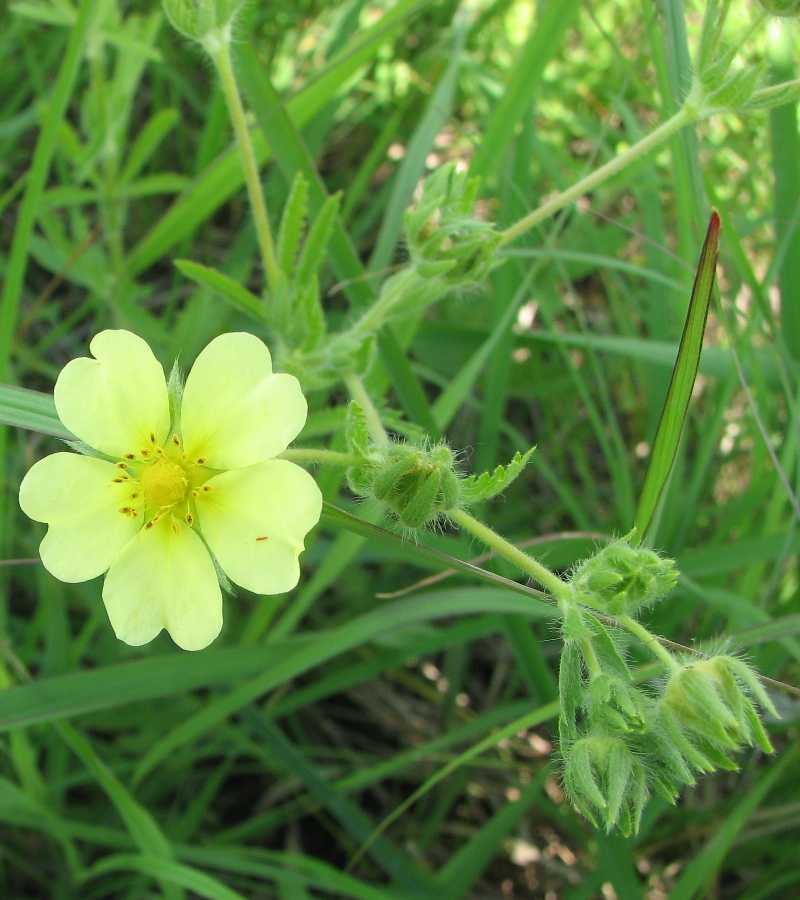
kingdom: Plantae
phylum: Tracheophyta
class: Magnoliopsida
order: Rosales
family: Rosaceae
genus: Potentilla
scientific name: Potentilla recta
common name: Sulphur cinquefoil
